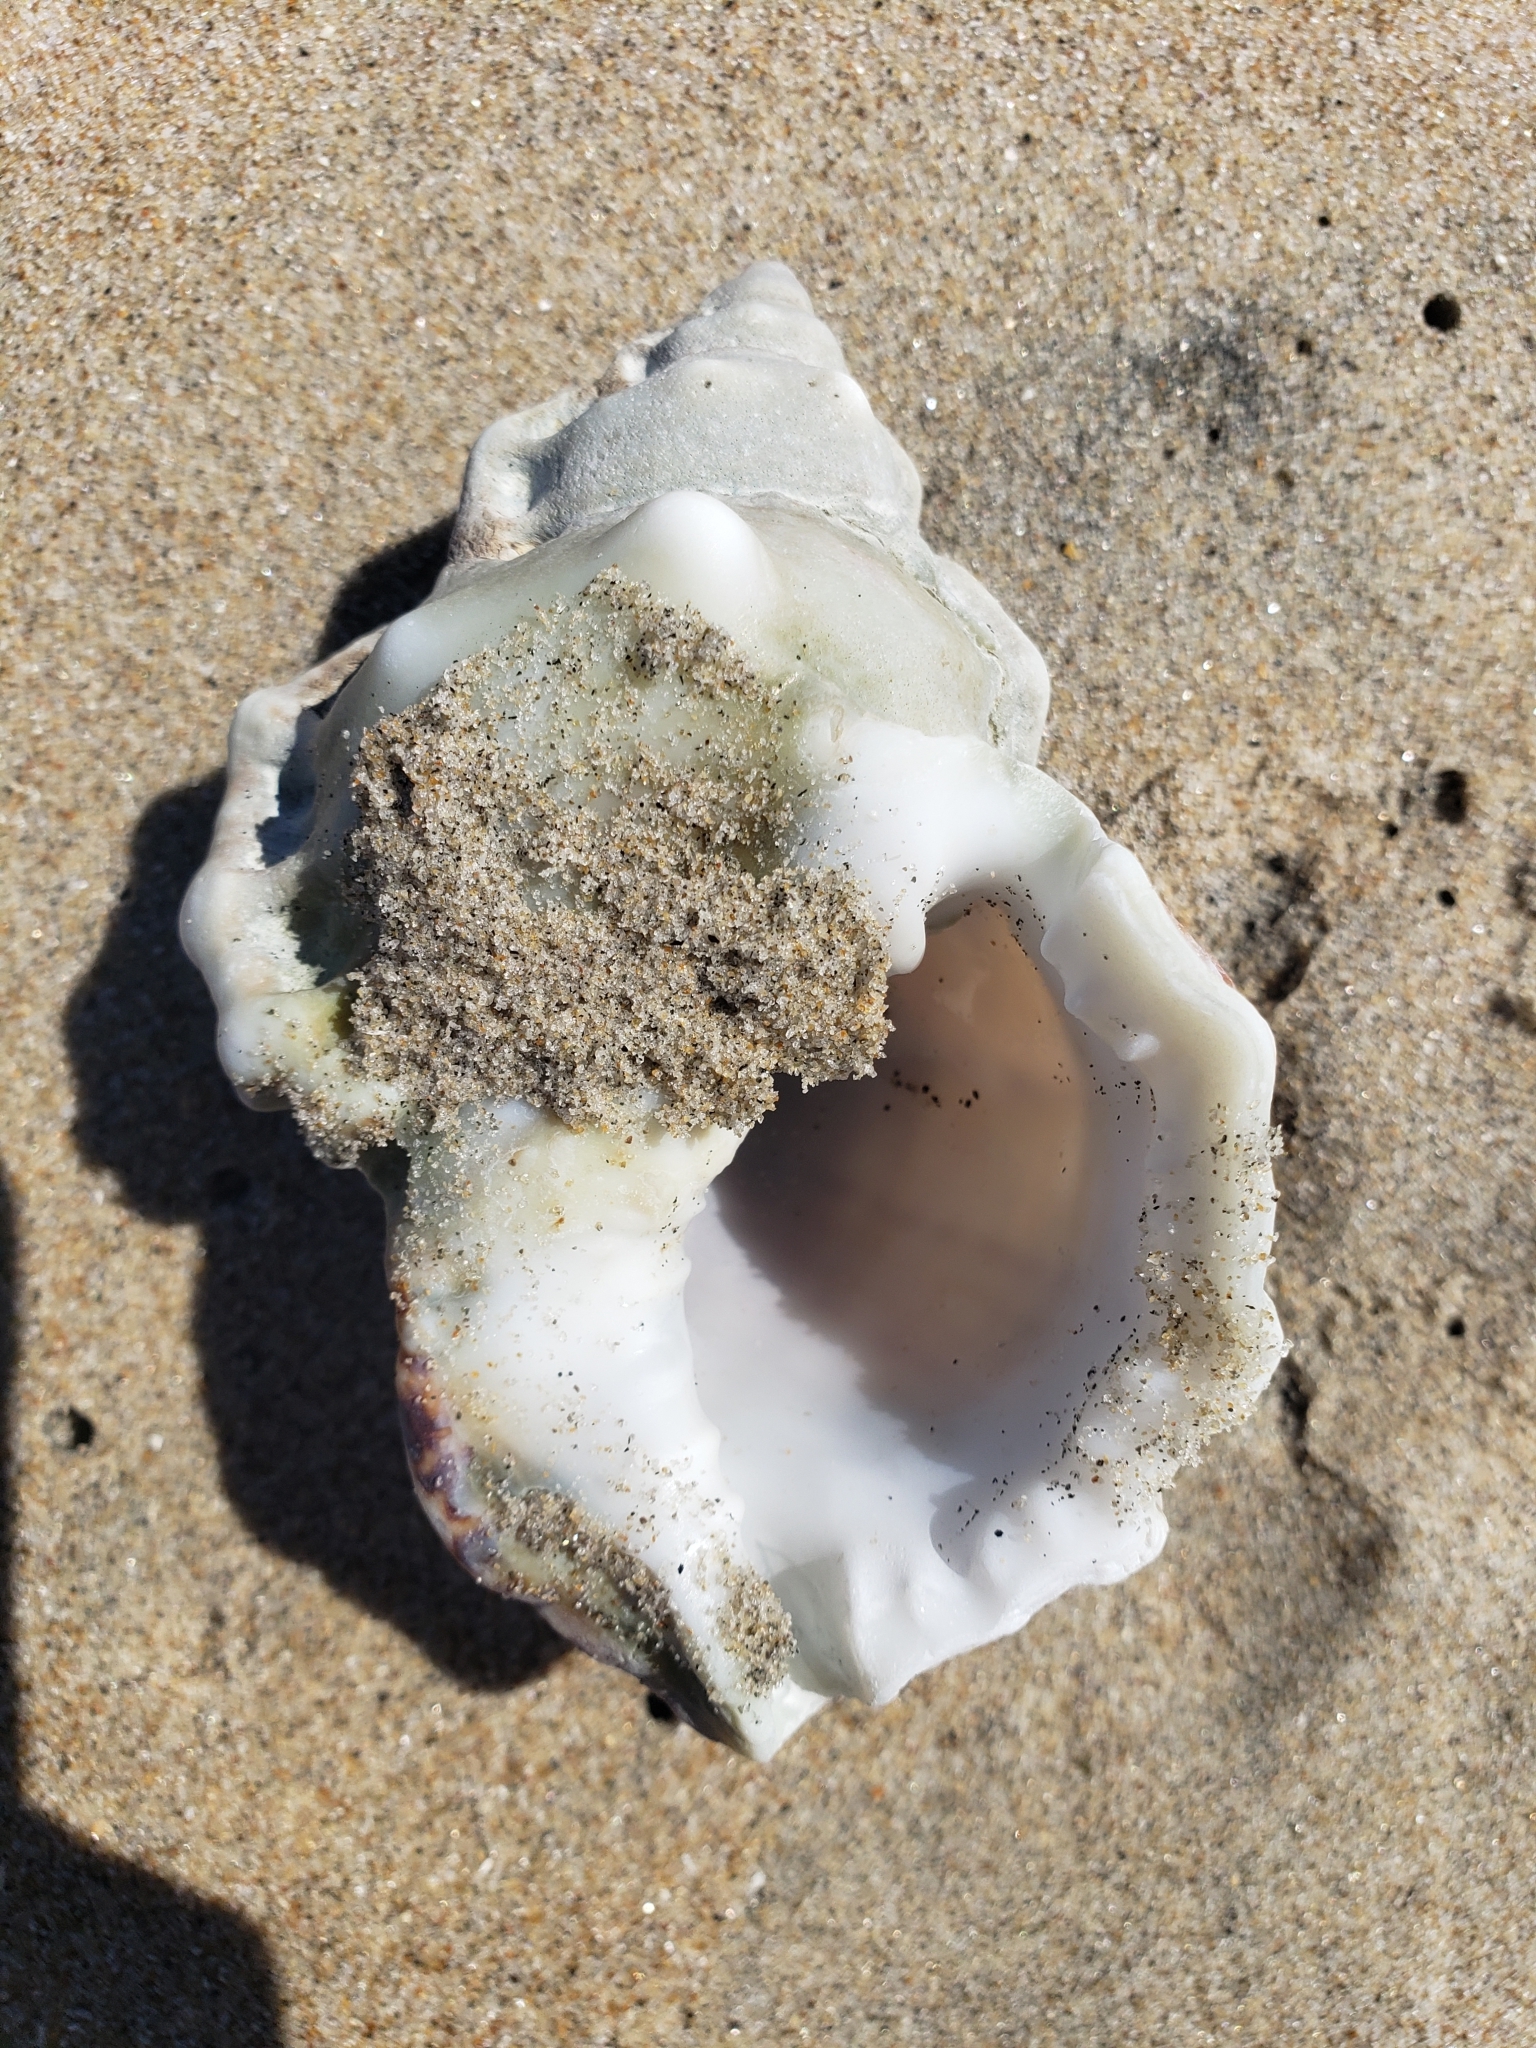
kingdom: Animalia
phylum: Mollusca
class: Gastropoda
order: Littorinimorpha
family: Bursidae
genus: Crossata
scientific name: Crossata californica
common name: California frogsnail
